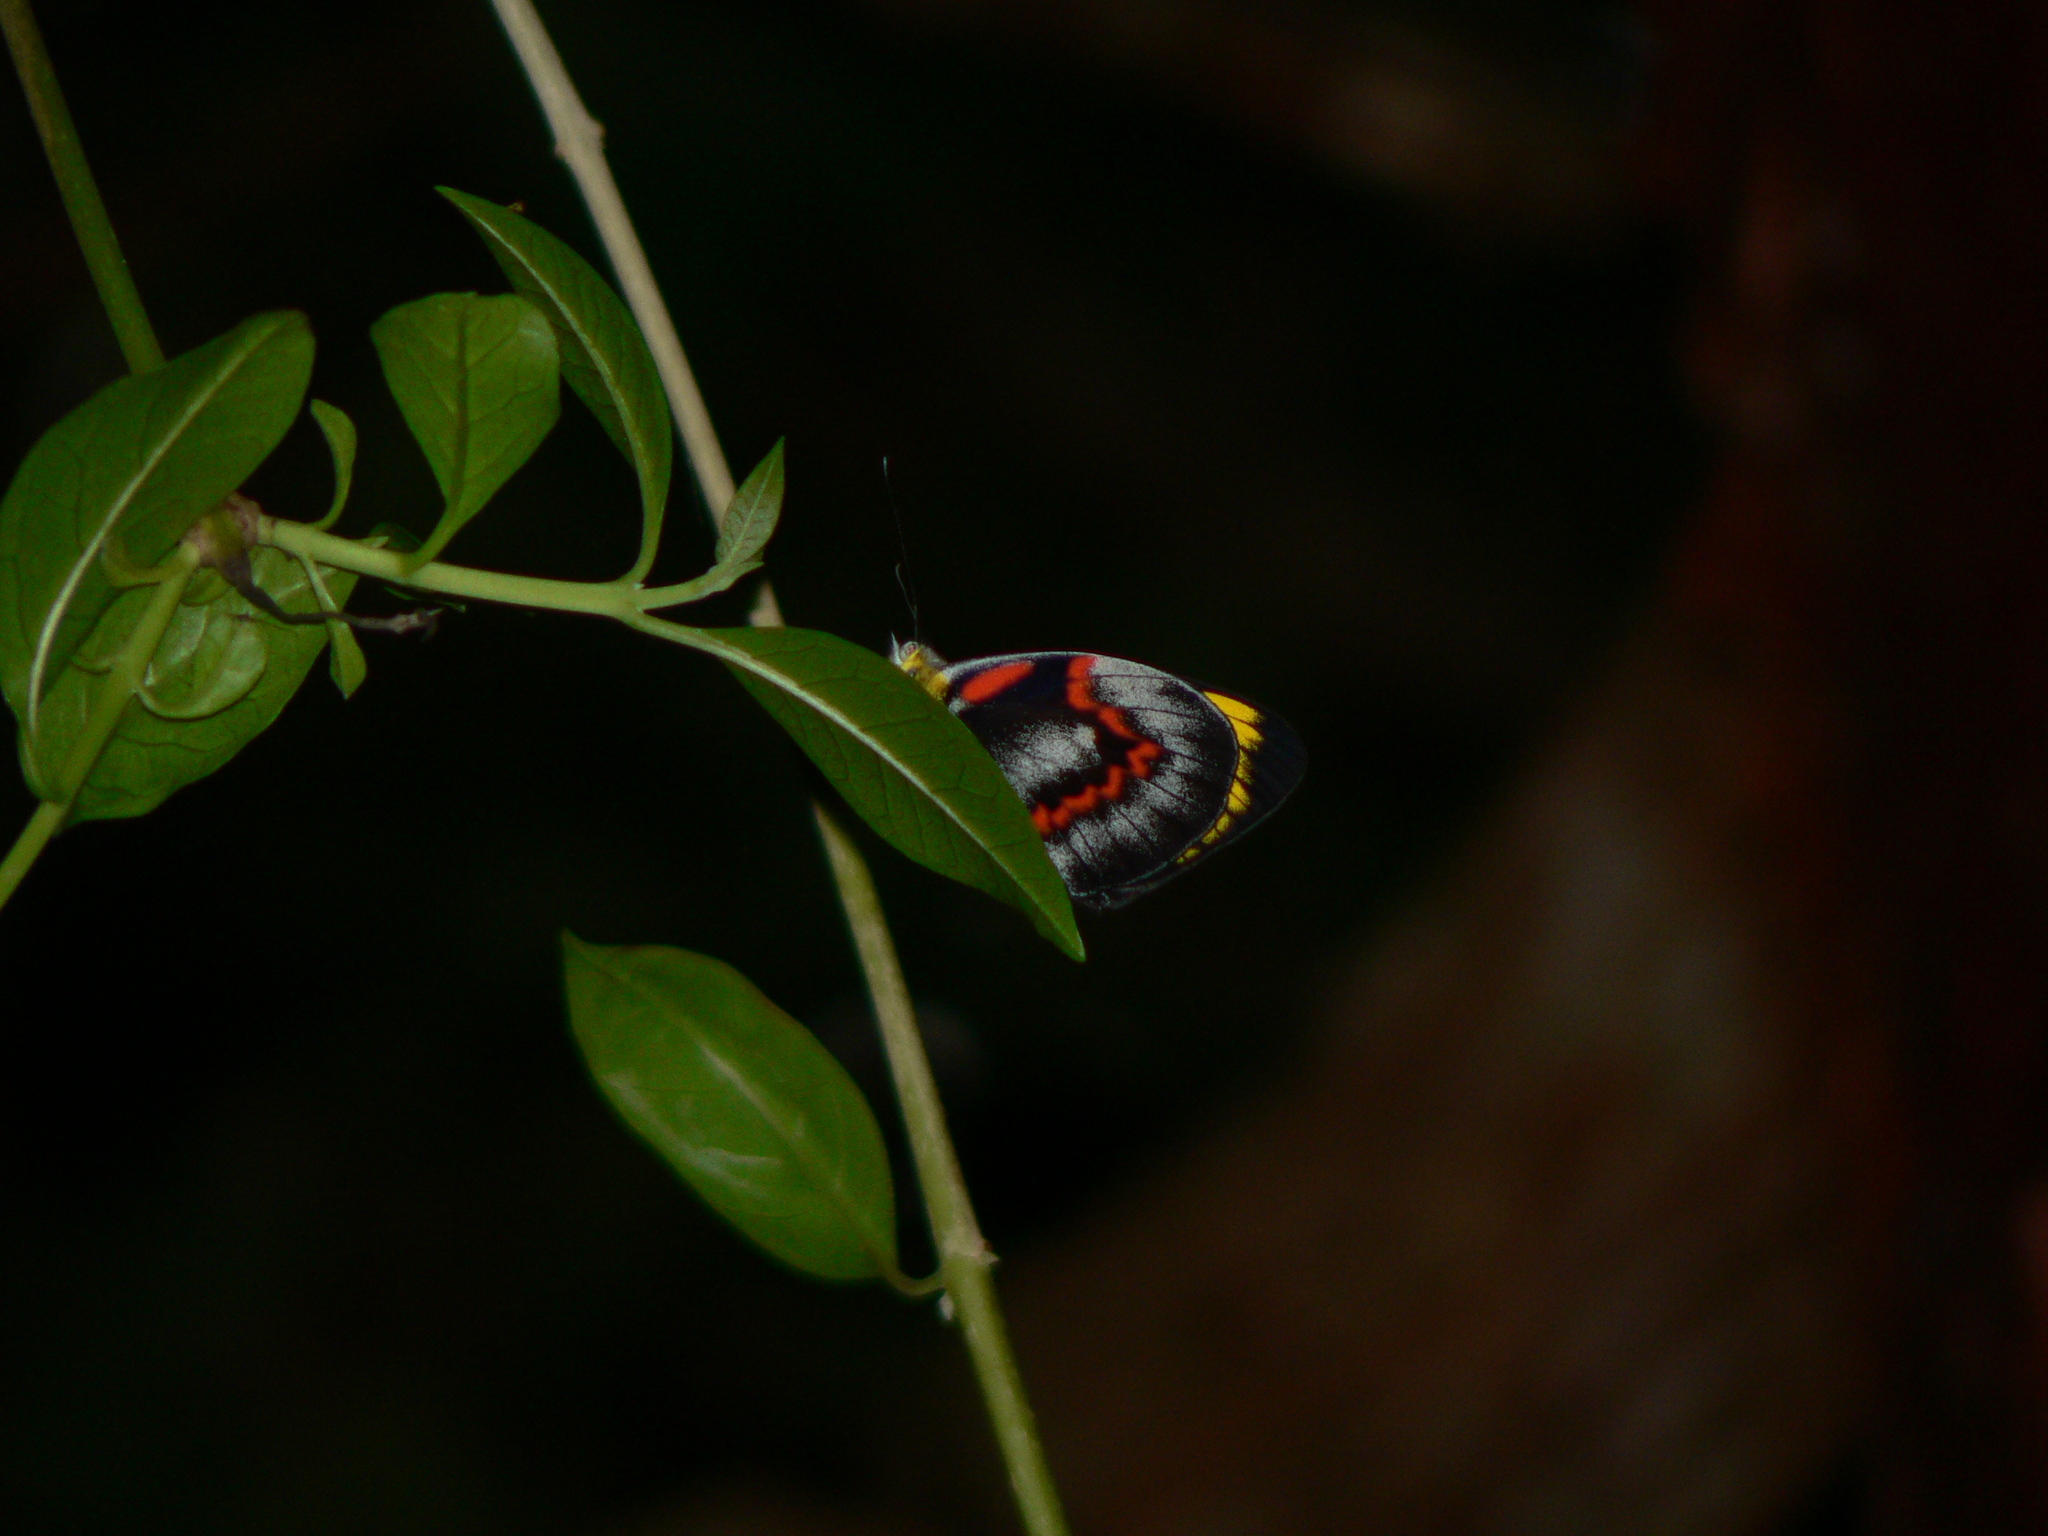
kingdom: Animalia
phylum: Arthropoda
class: Insecta
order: Lepidoptera
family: Pieridae
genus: Delias
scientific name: Delias nigrina
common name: Black jezebel
